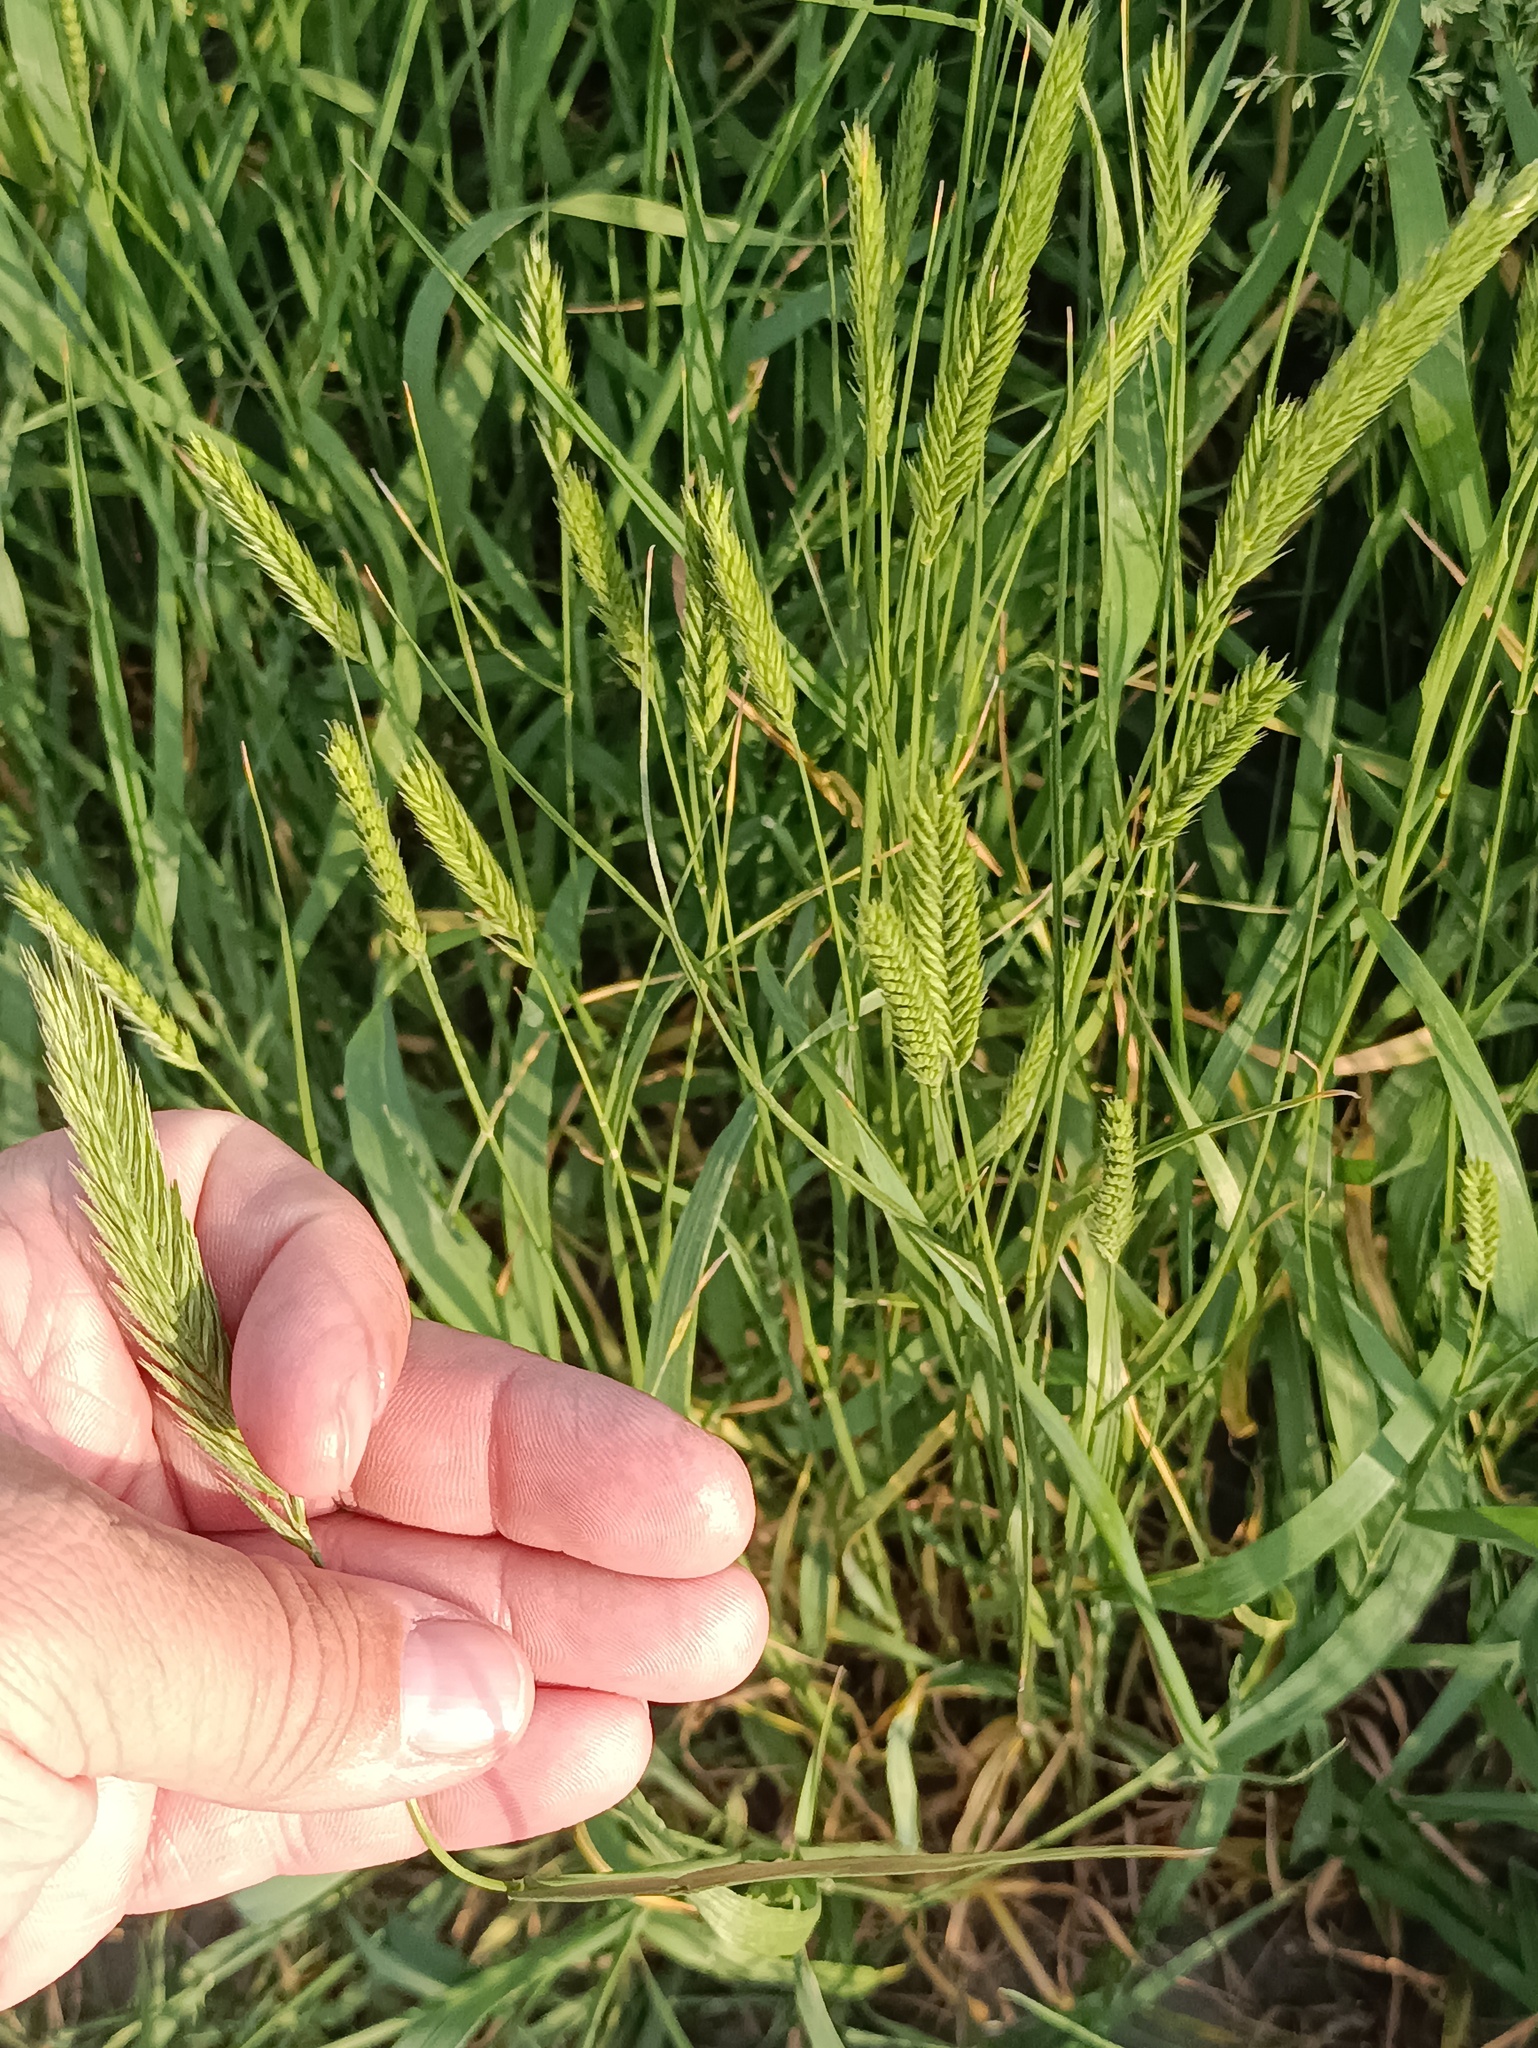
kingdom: Plantae
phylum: Tracheophyta
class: Liliopsida
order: Poales
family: Poaceae
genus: Agropyron
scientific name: Agropyron cristatum
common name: Crested wheatgrass
